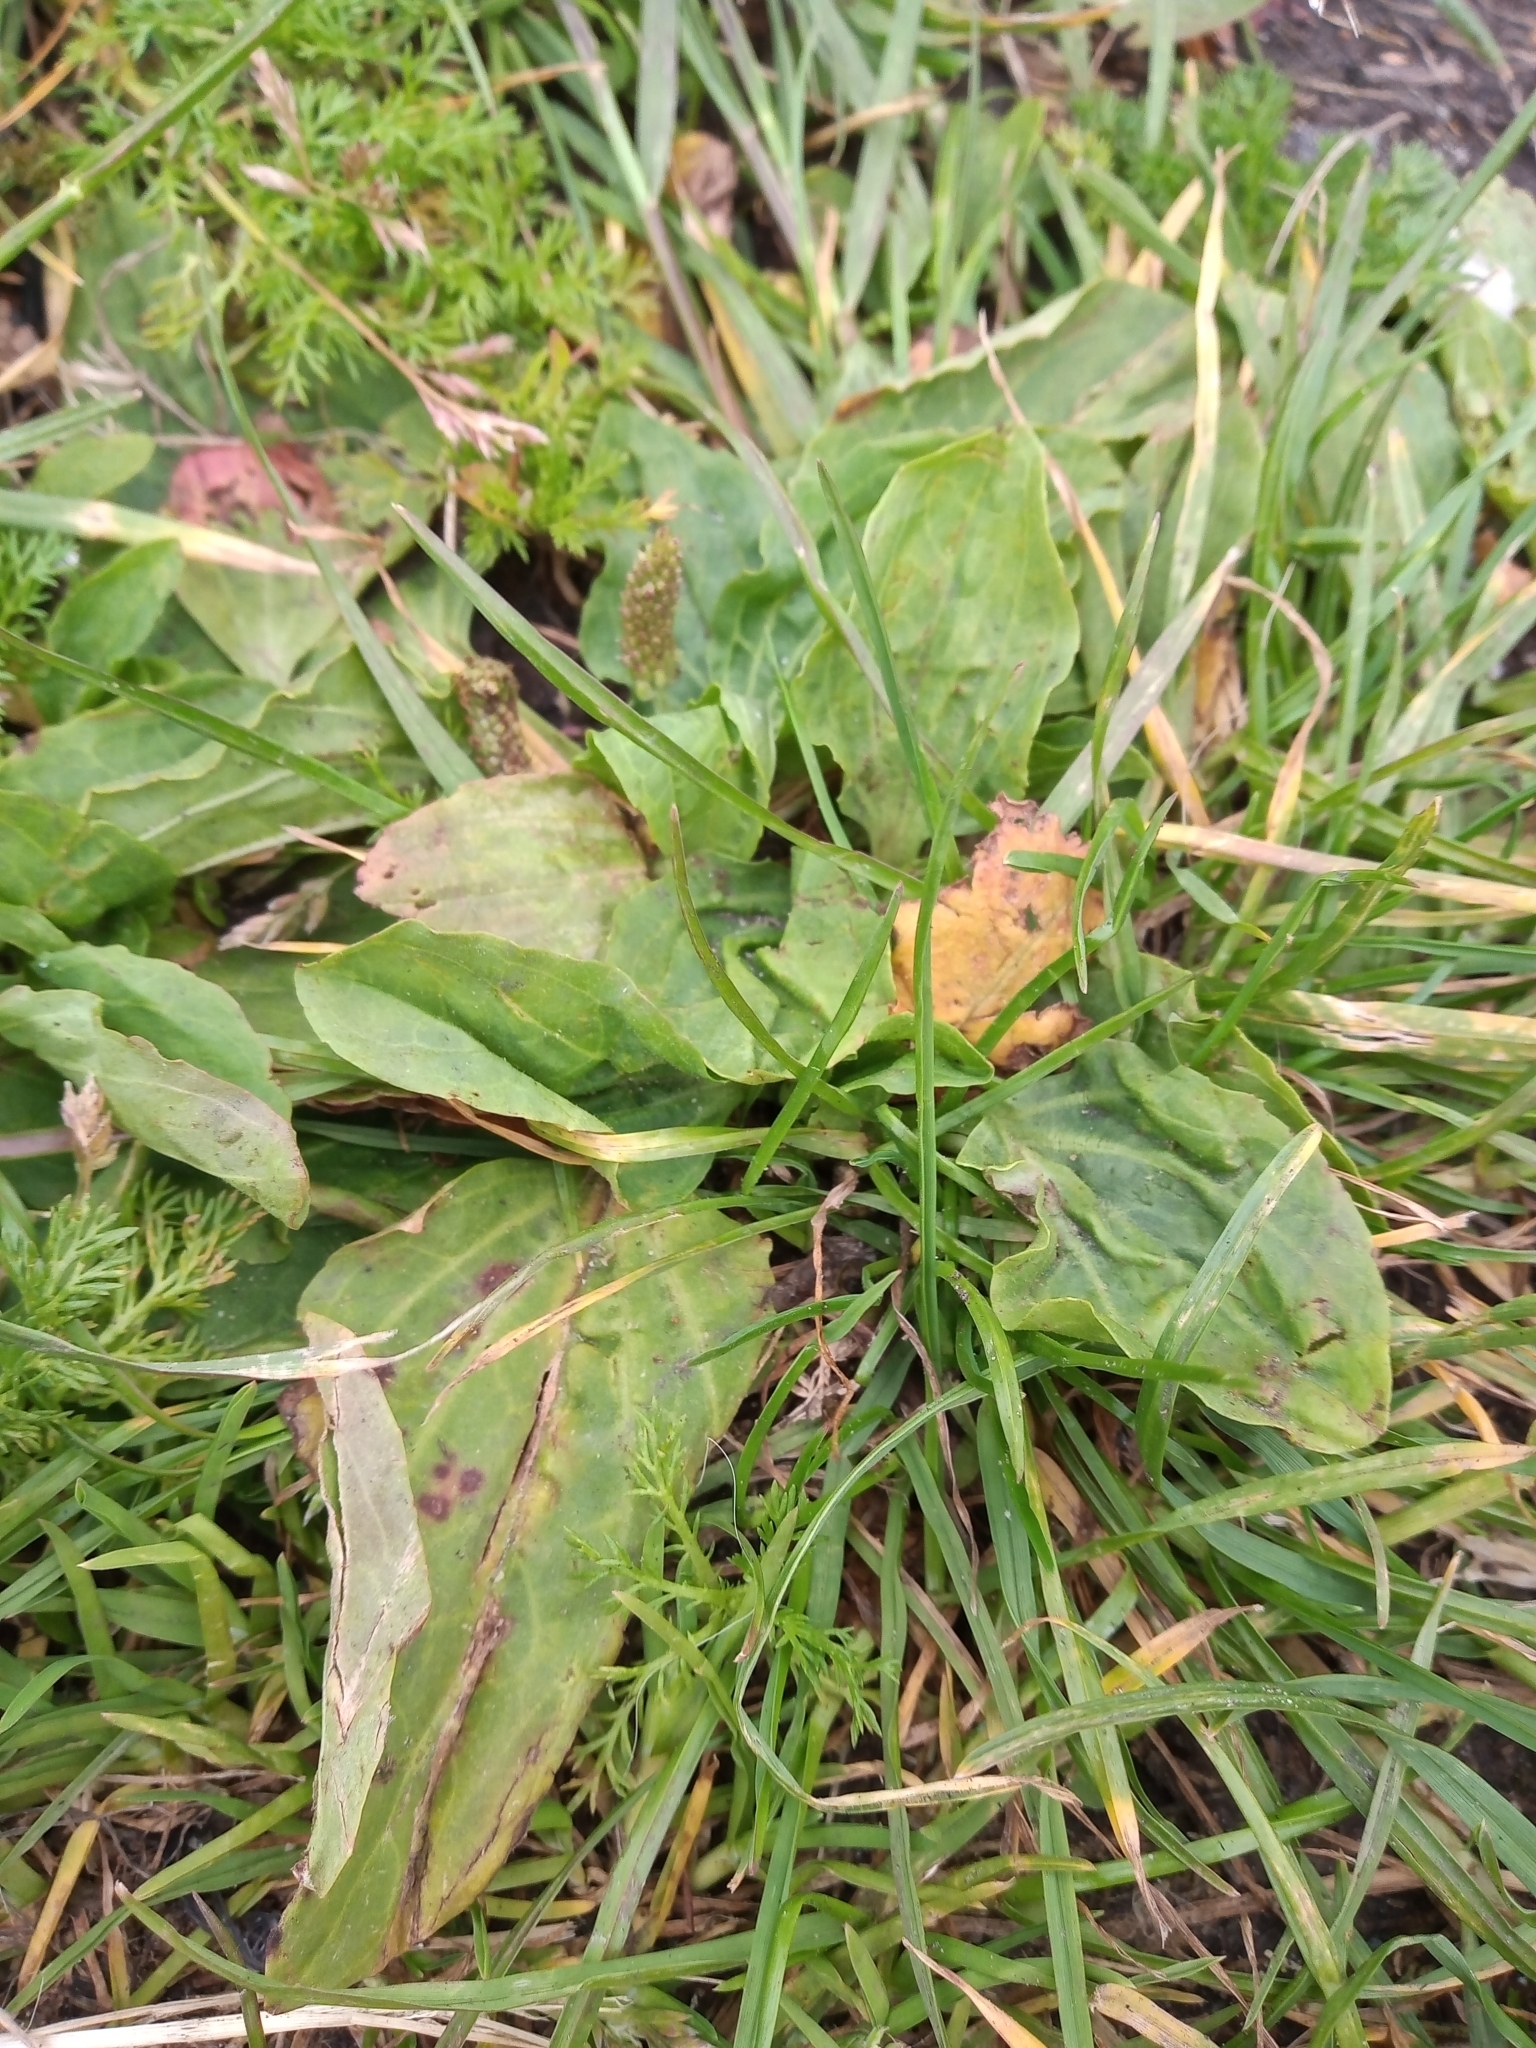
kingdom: Plantae
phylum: Tracheophyta
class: Magnoliopsida
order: Lamiales
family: Plantaginaceae
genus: Plantago
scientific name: Plantago major
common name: Common plantain
